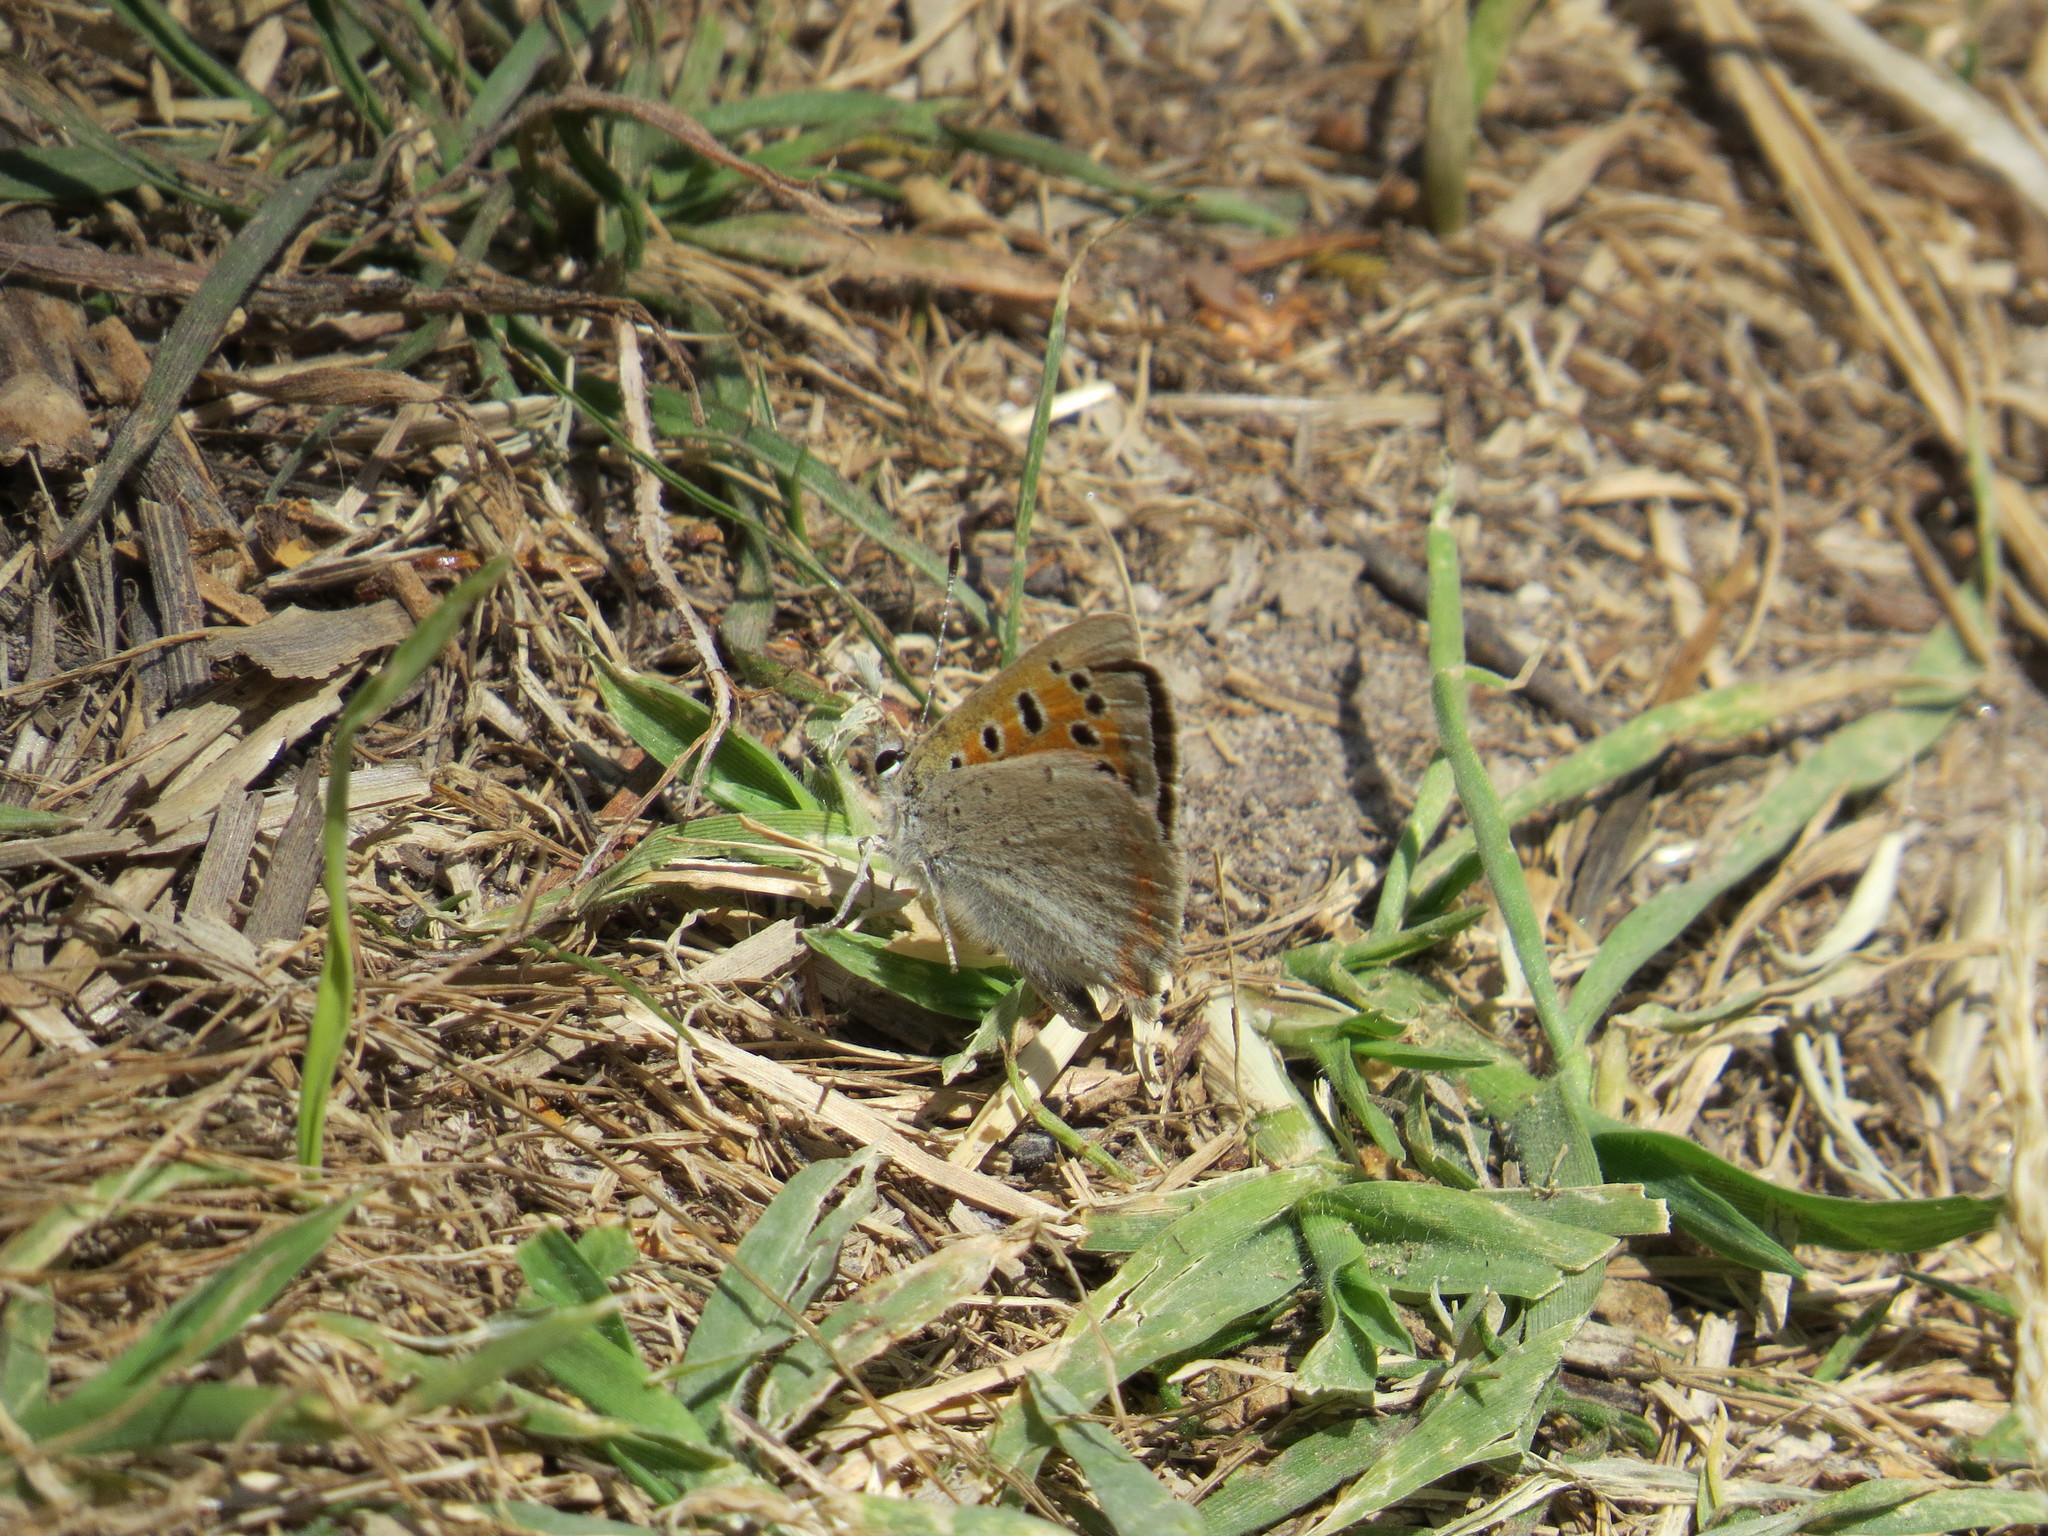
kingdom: Animalia
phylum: Arthropoda
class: Insecta
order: Lepidoptera
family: Lycaenidae
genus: Lycaena
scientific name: Lycaena phlaeas
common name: Small copper
